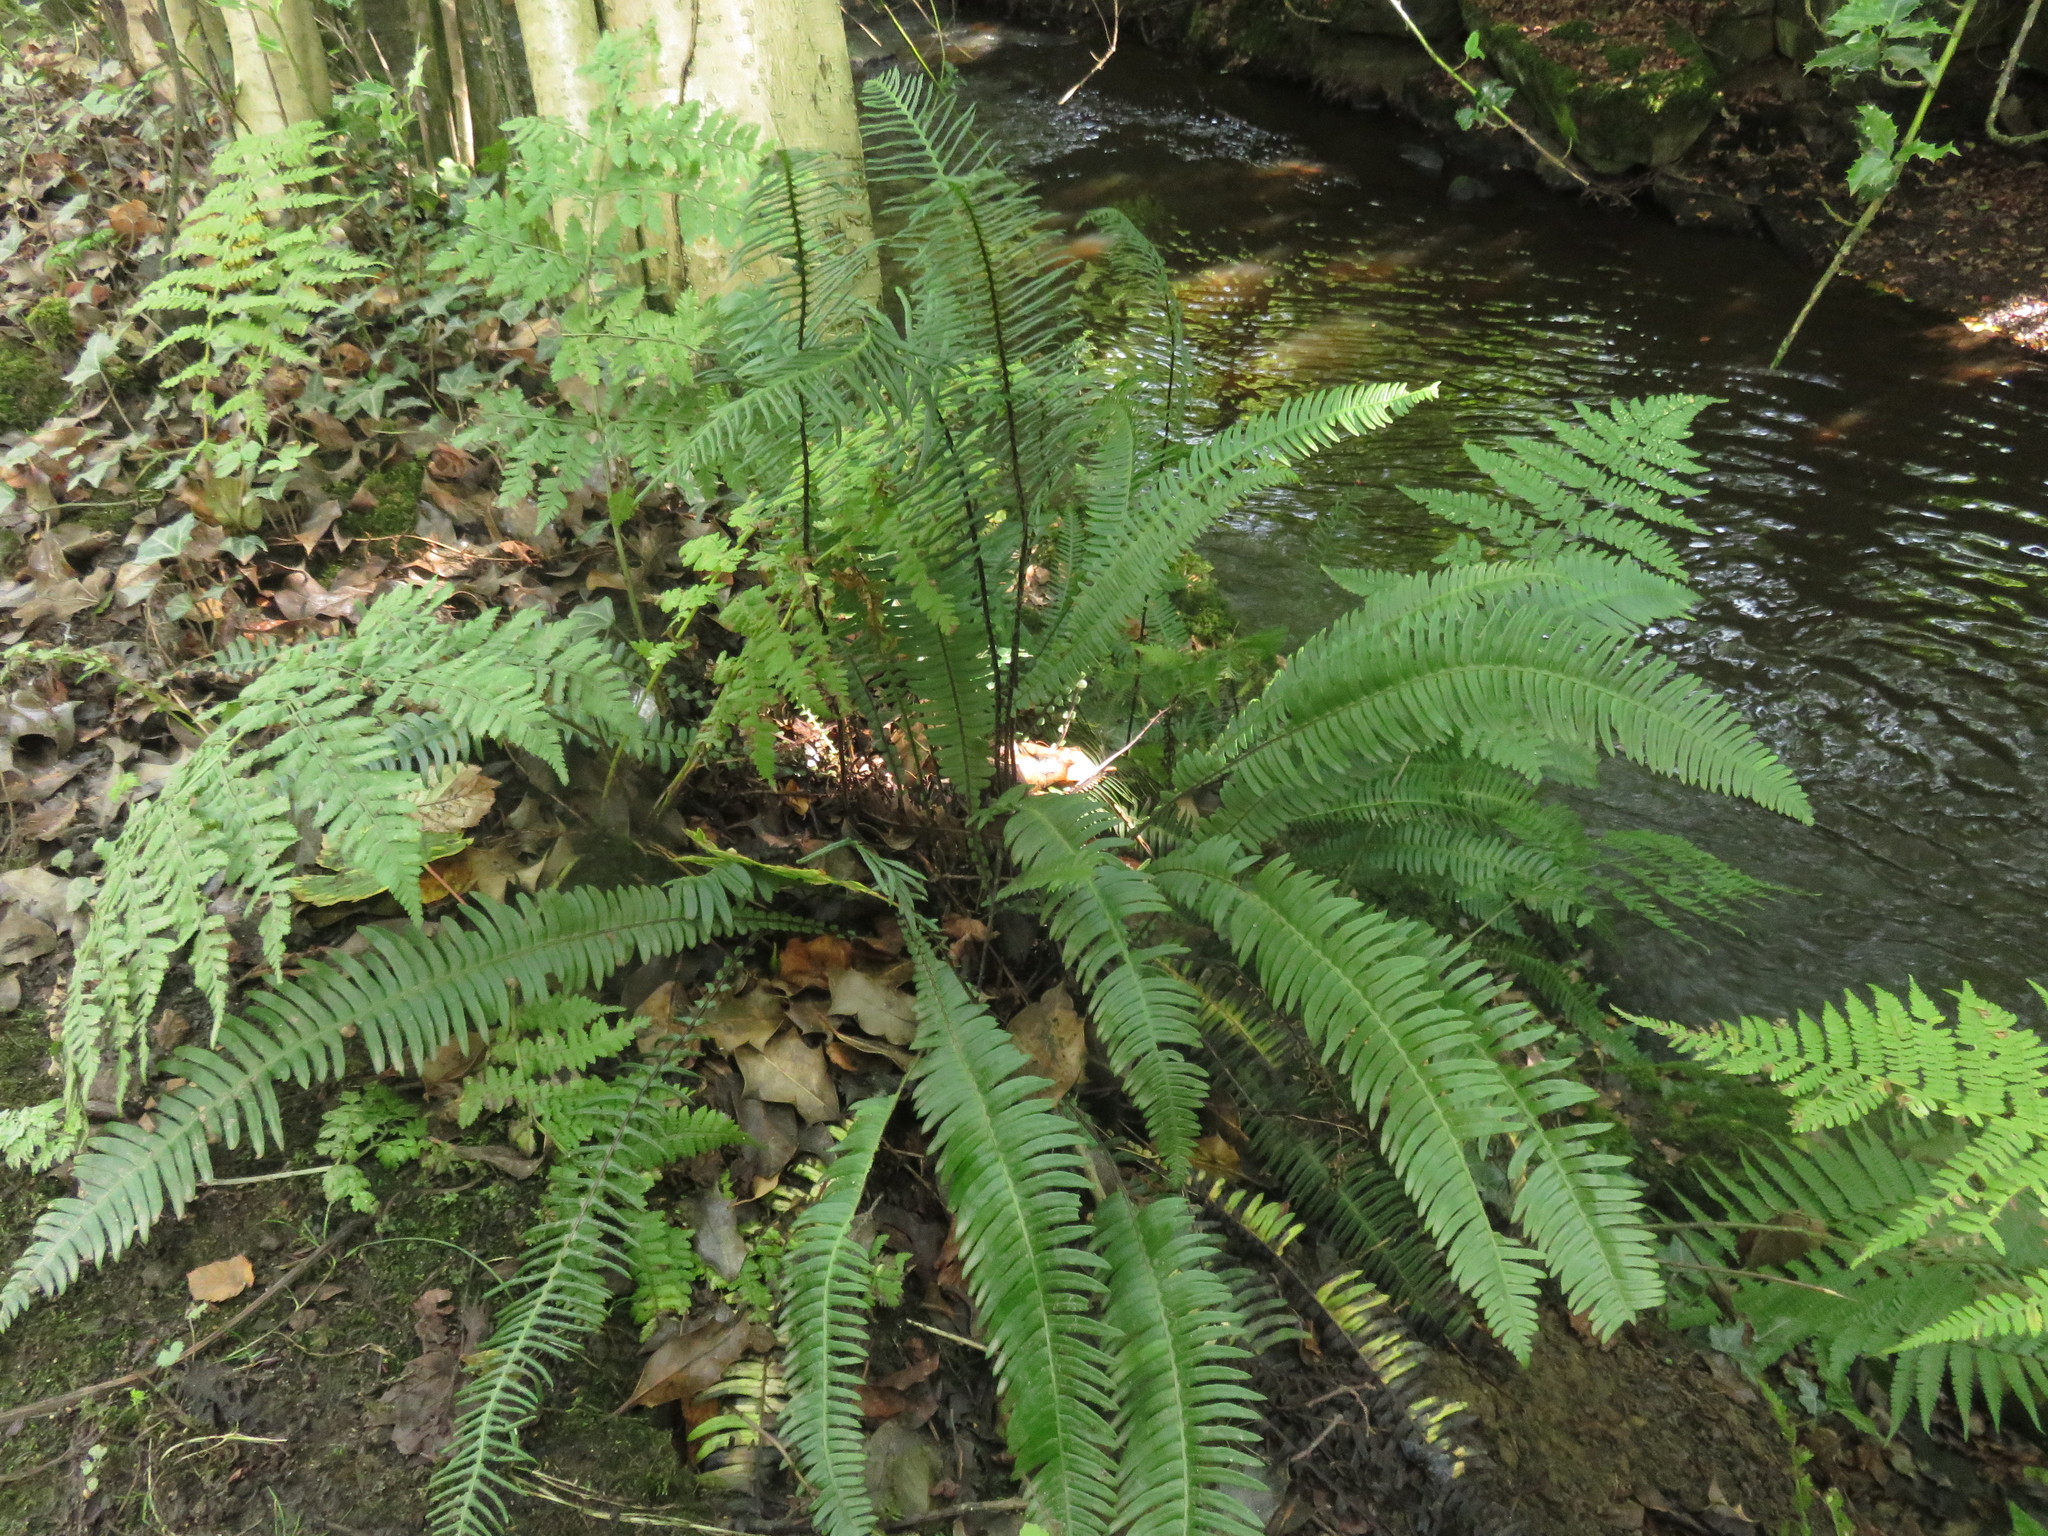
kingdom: Plantae
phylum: Tracheophyta
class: Polypodiopsida
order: Polypodiales
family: Blechnaceae
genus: Struthiopteris
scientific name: Struthiopteris spicant
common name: Deer fern
